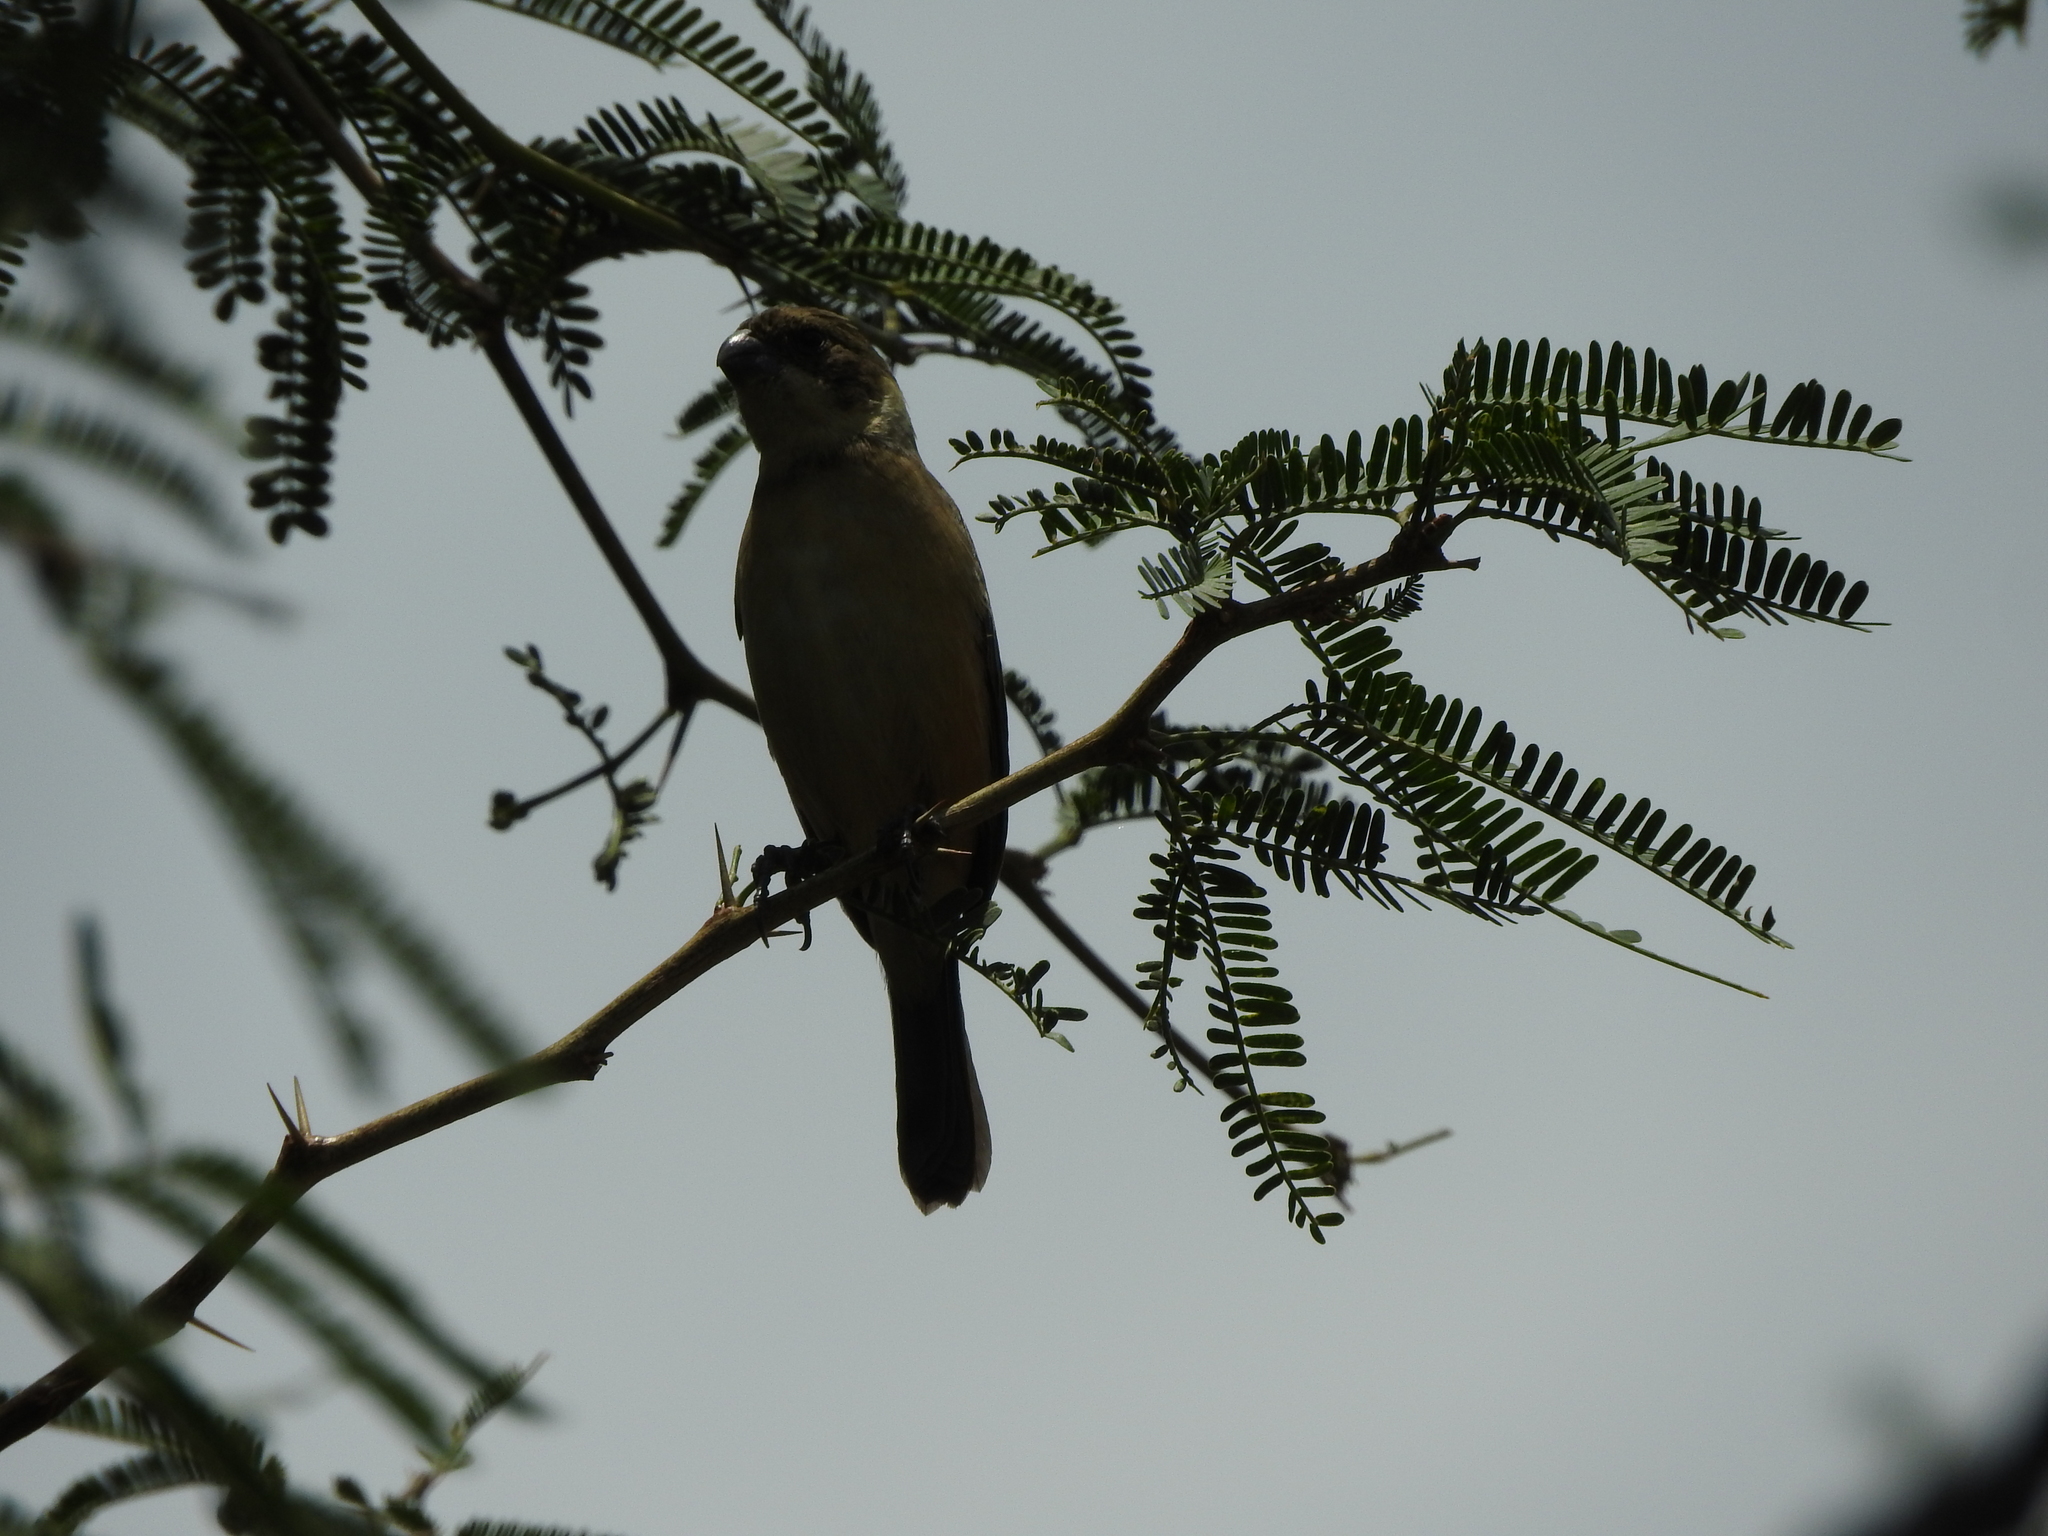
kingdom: Animalia
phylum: Chordata
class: Aves
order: Passeriformes
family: Thraupidae
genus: Sporophila
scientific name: Sporophila torqueola
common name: White-collared seedeater
